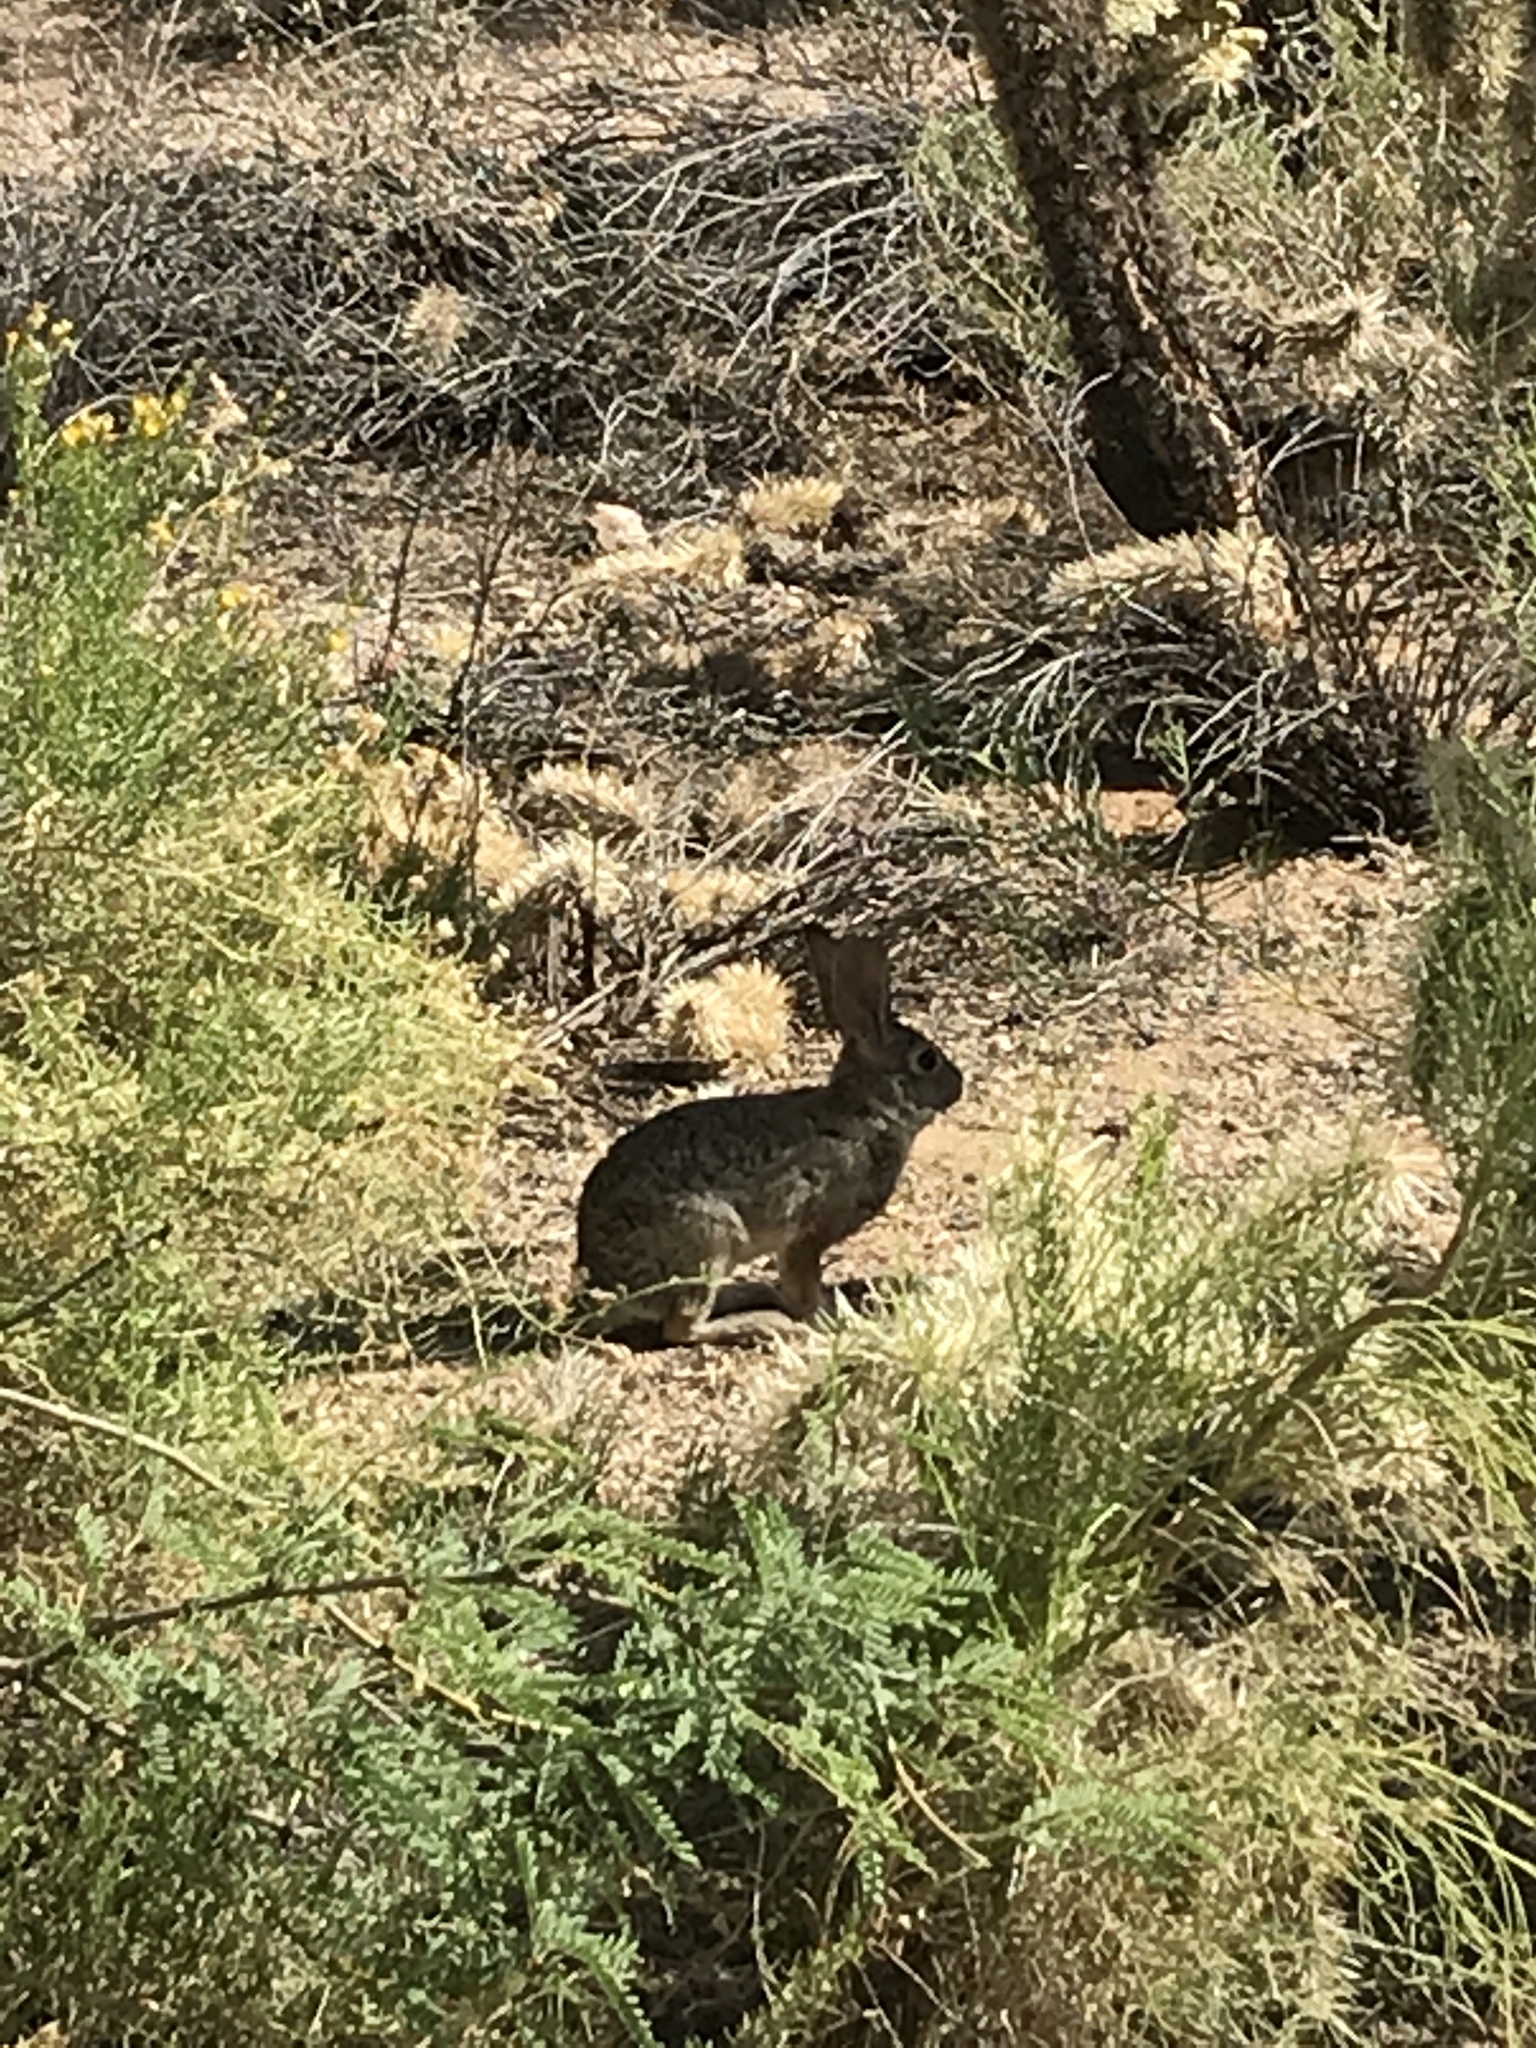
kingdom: Animalia
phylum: Chordata
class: Mammalia
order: Lagomorpha
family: Leporidae
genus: Sylvilagus
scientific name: Sylvilagus audubonii
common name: Desert cottontail
